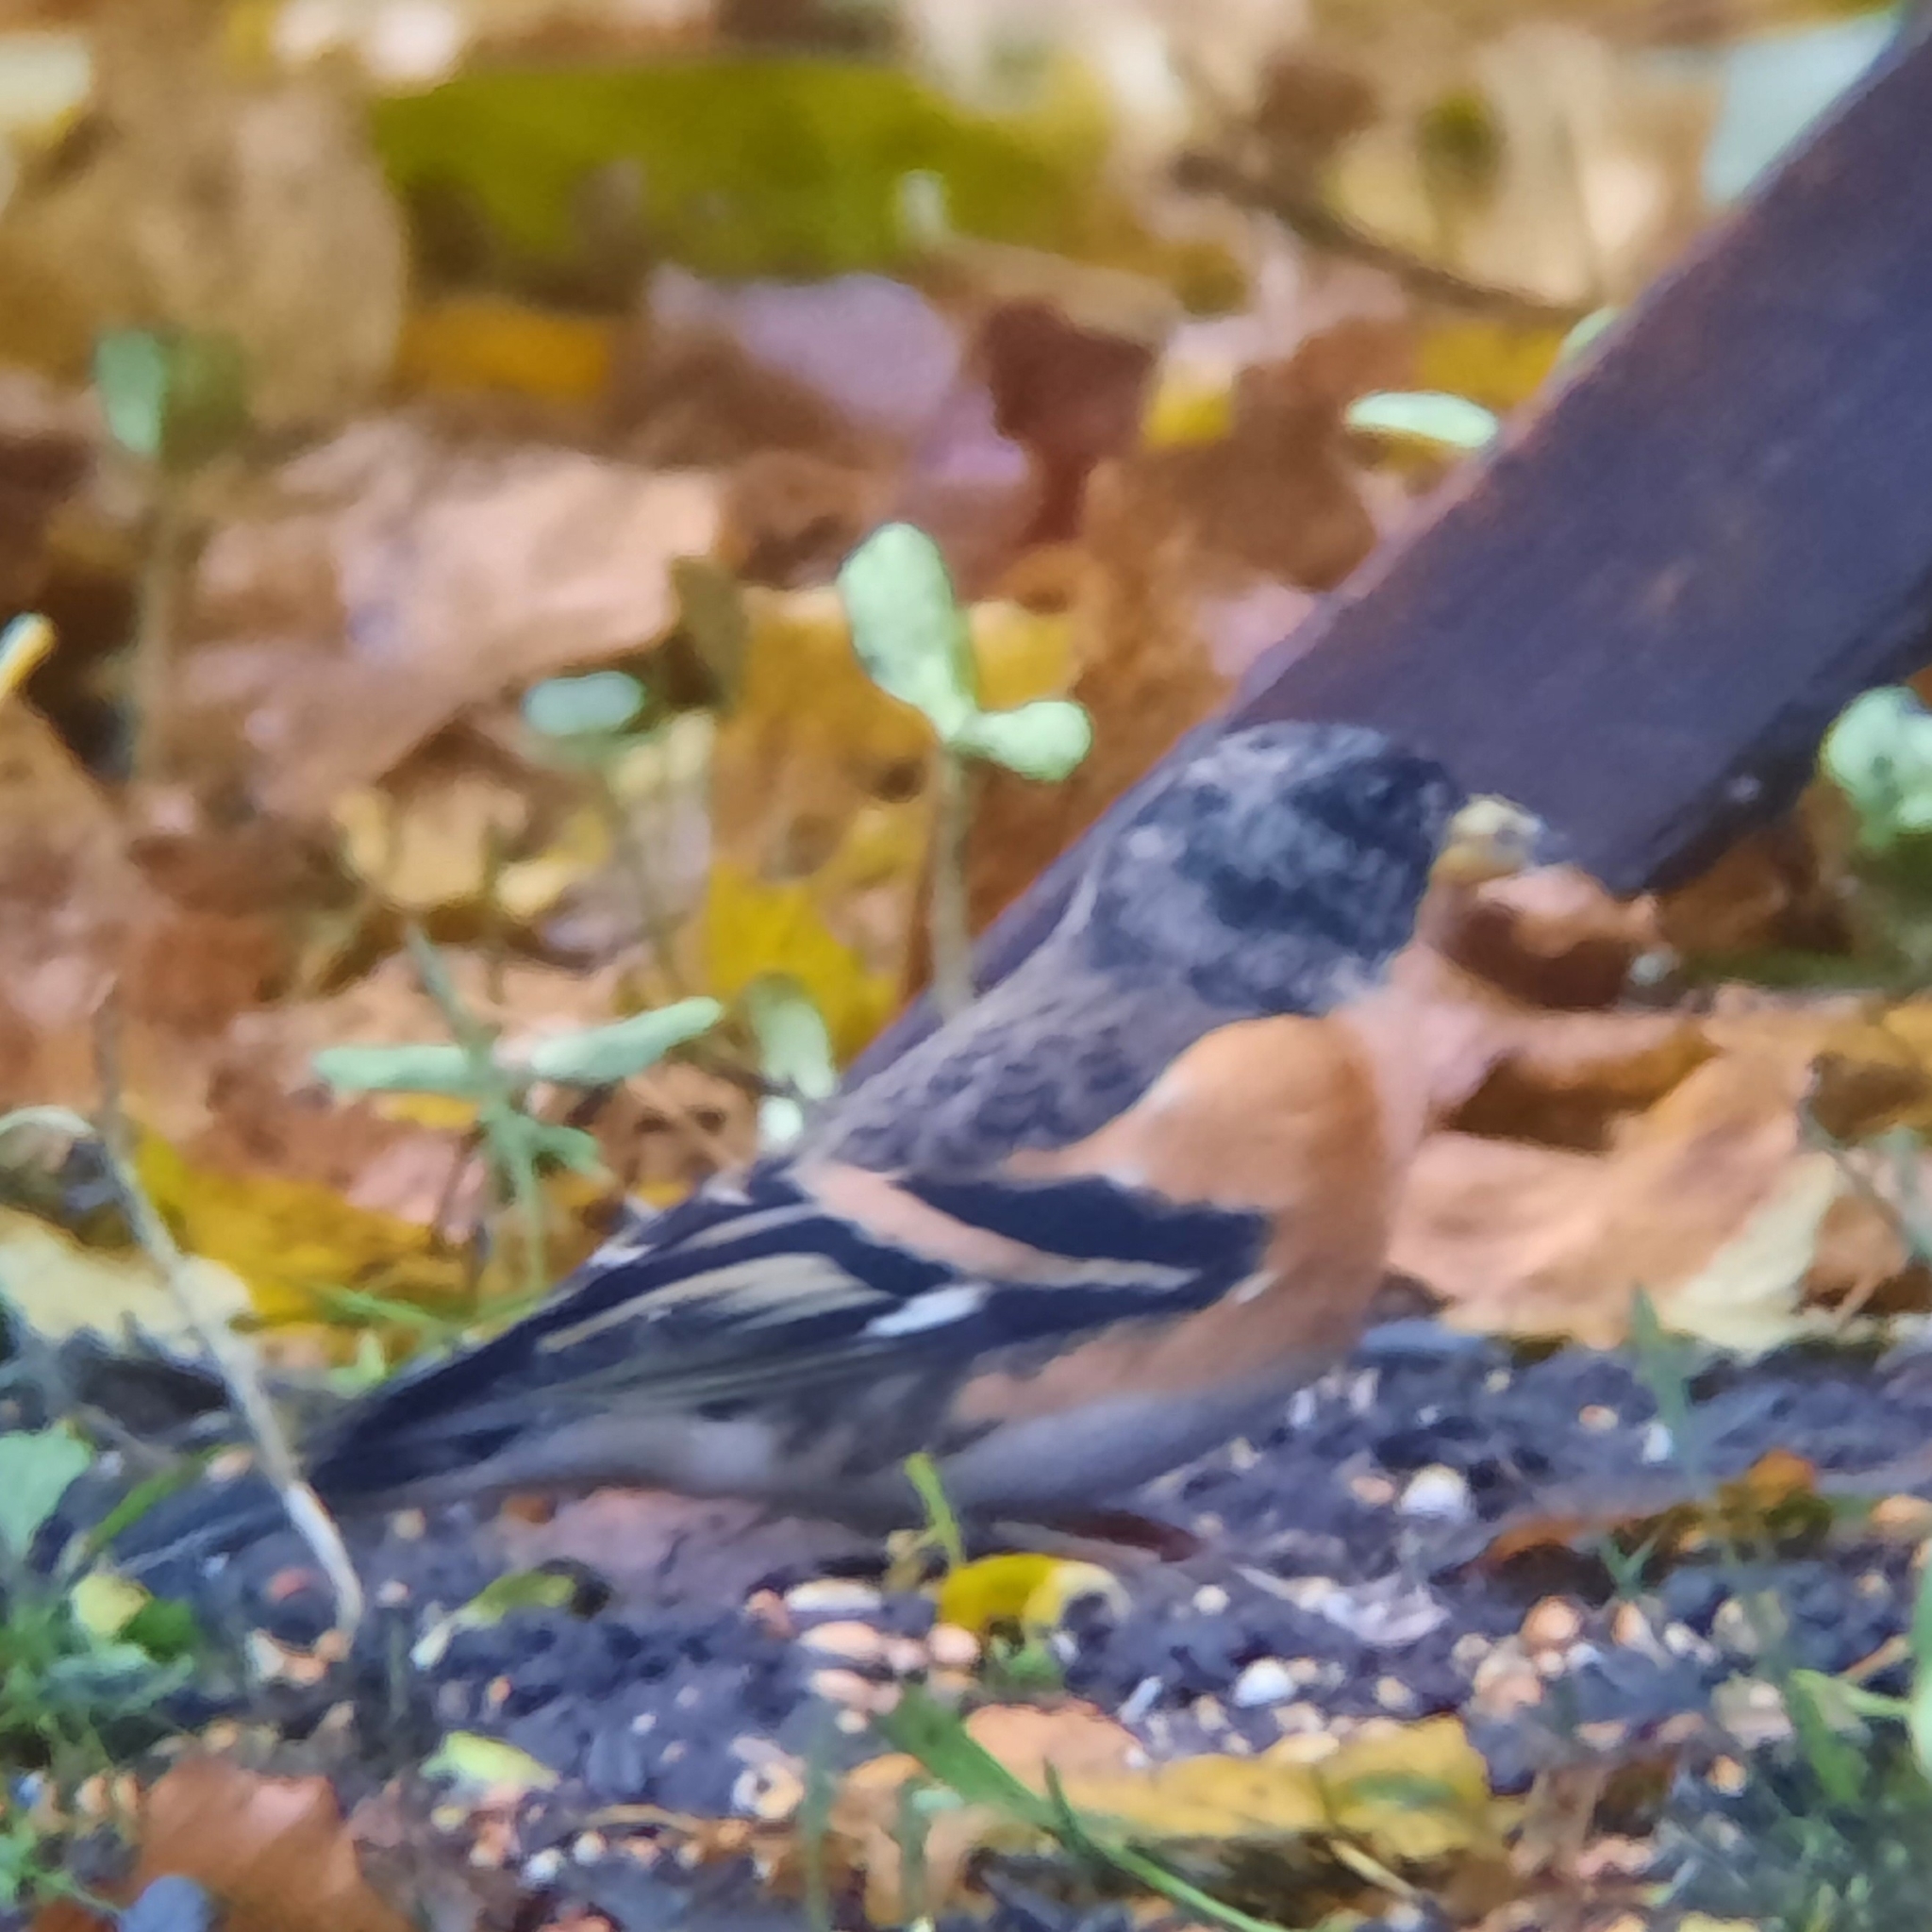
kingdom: Animalia
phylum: Chordata
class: Aves
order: Passeriformes
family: Fringillidae
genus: Fringilla
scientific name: Fringilla montifringilla
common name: Brambling
